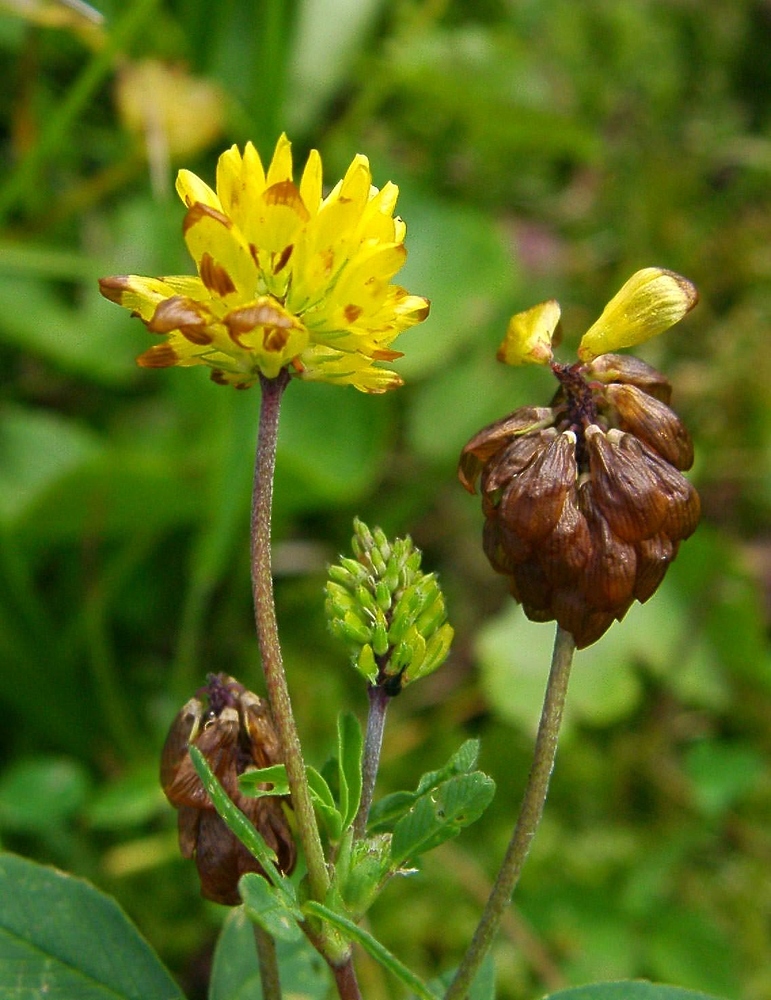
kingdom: Plantae
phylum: Tracheophyta
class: Magnoliopsida
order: Fabales
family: Fabaceae
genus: Trifolium
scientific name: Trifolium badium
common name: Brown clover
